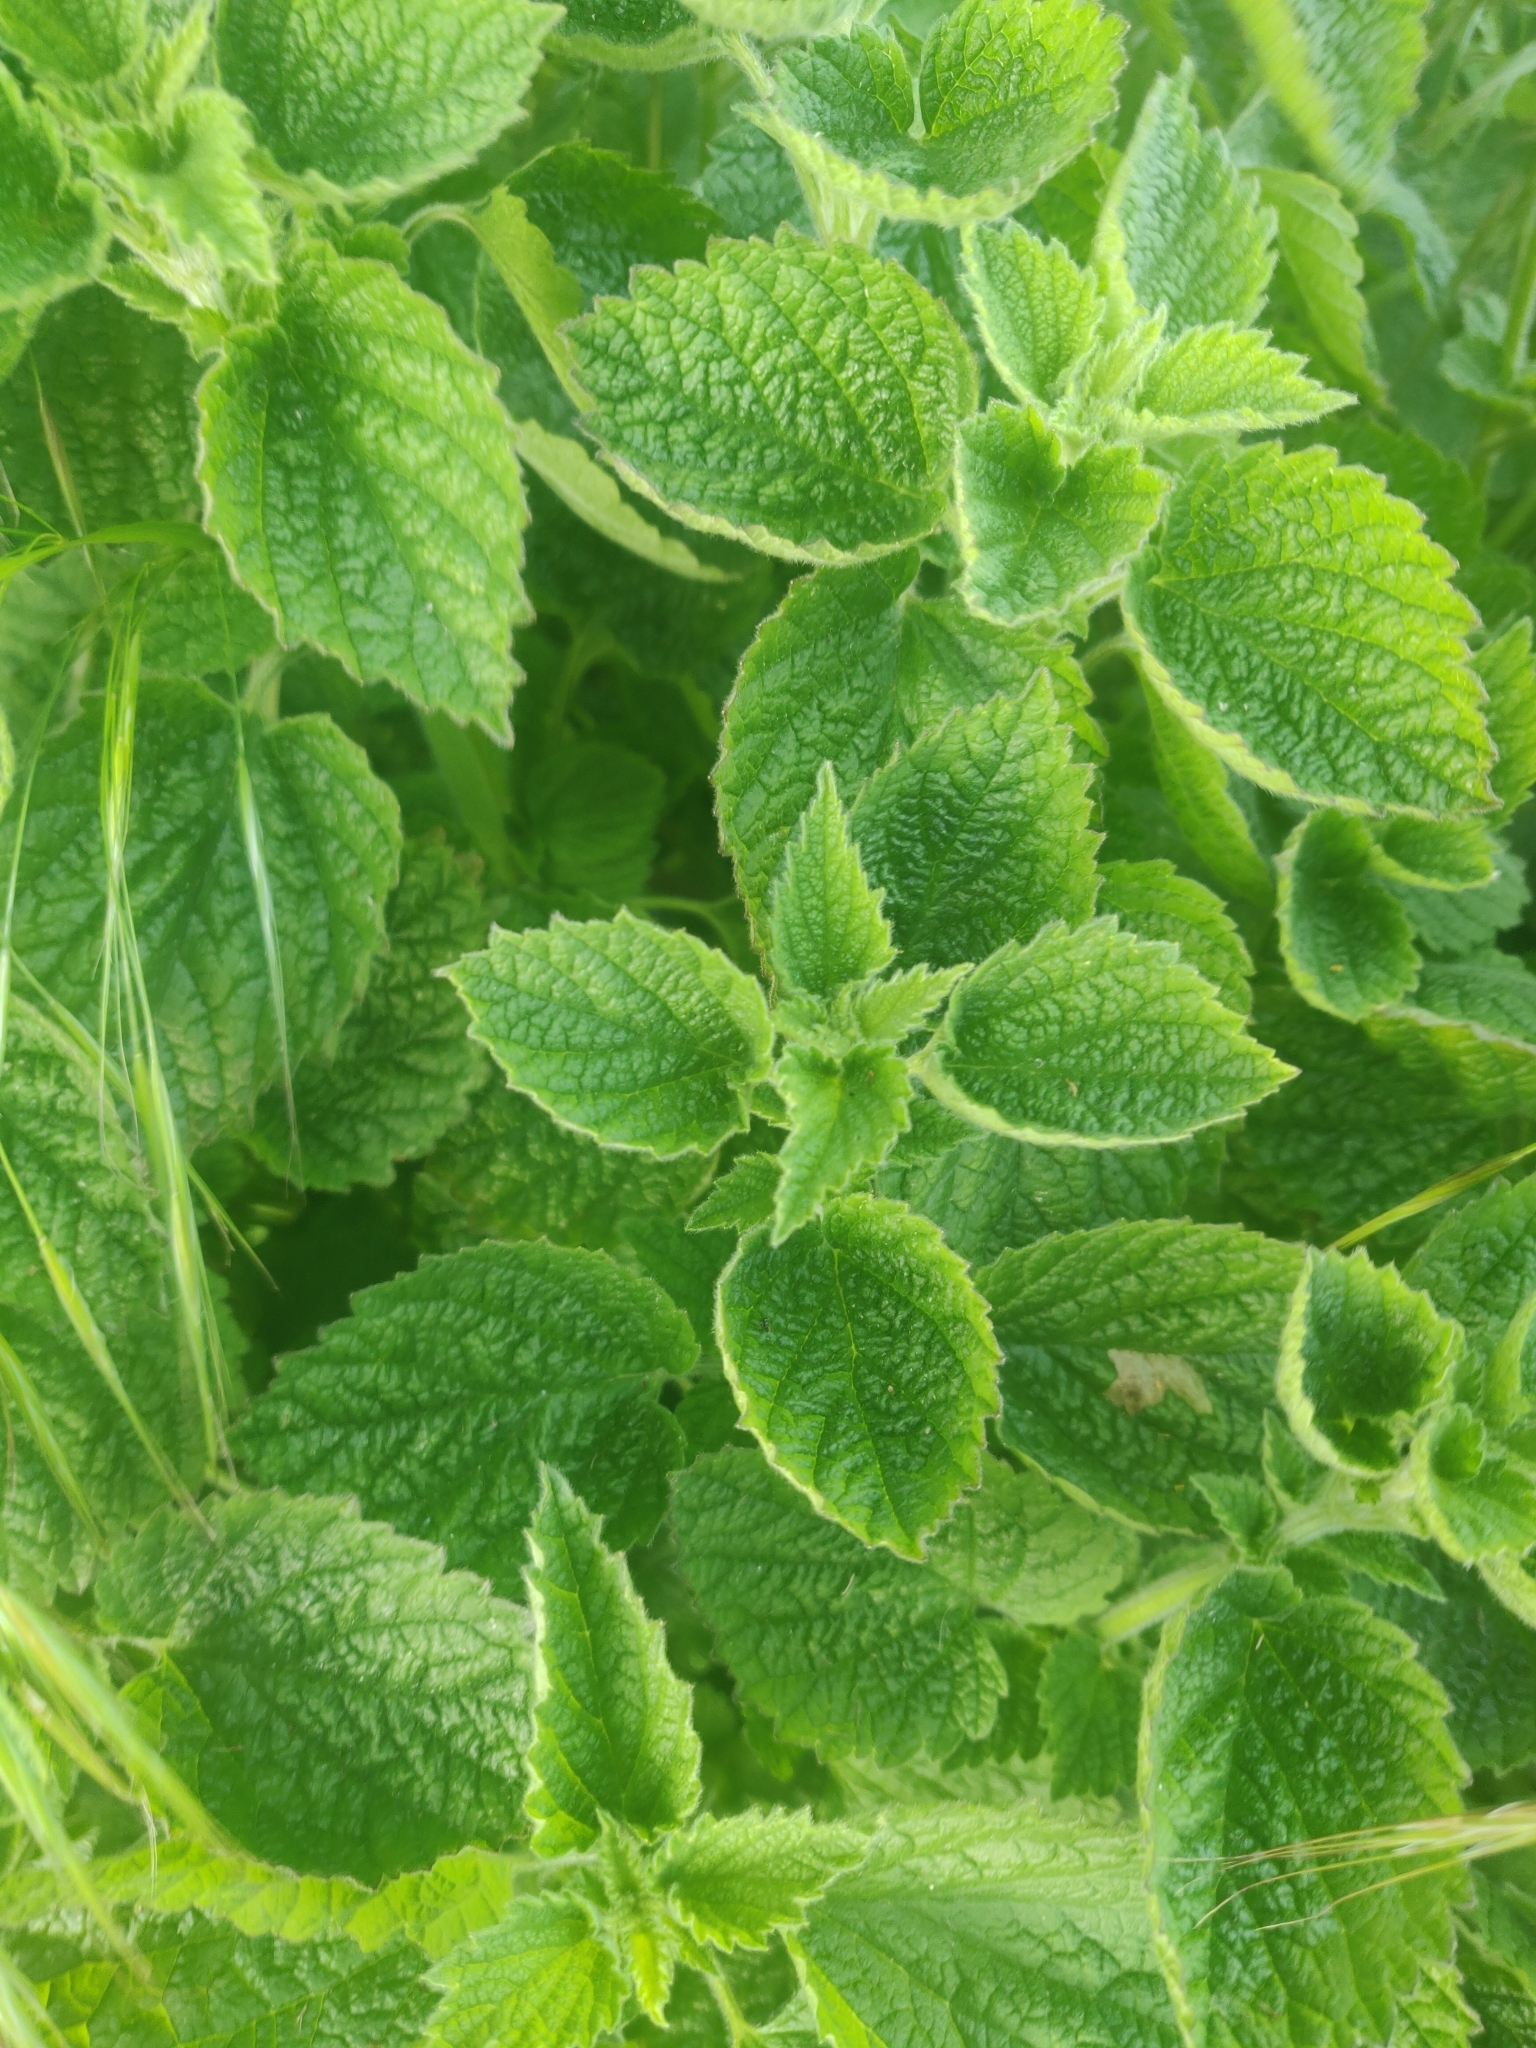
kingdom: Plantae
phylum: Tracheophyta
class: Magnoliopsida
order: Lamiales
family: Lamiaceae
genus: Lamium
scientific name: Lamium album
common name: White dead-nettle
